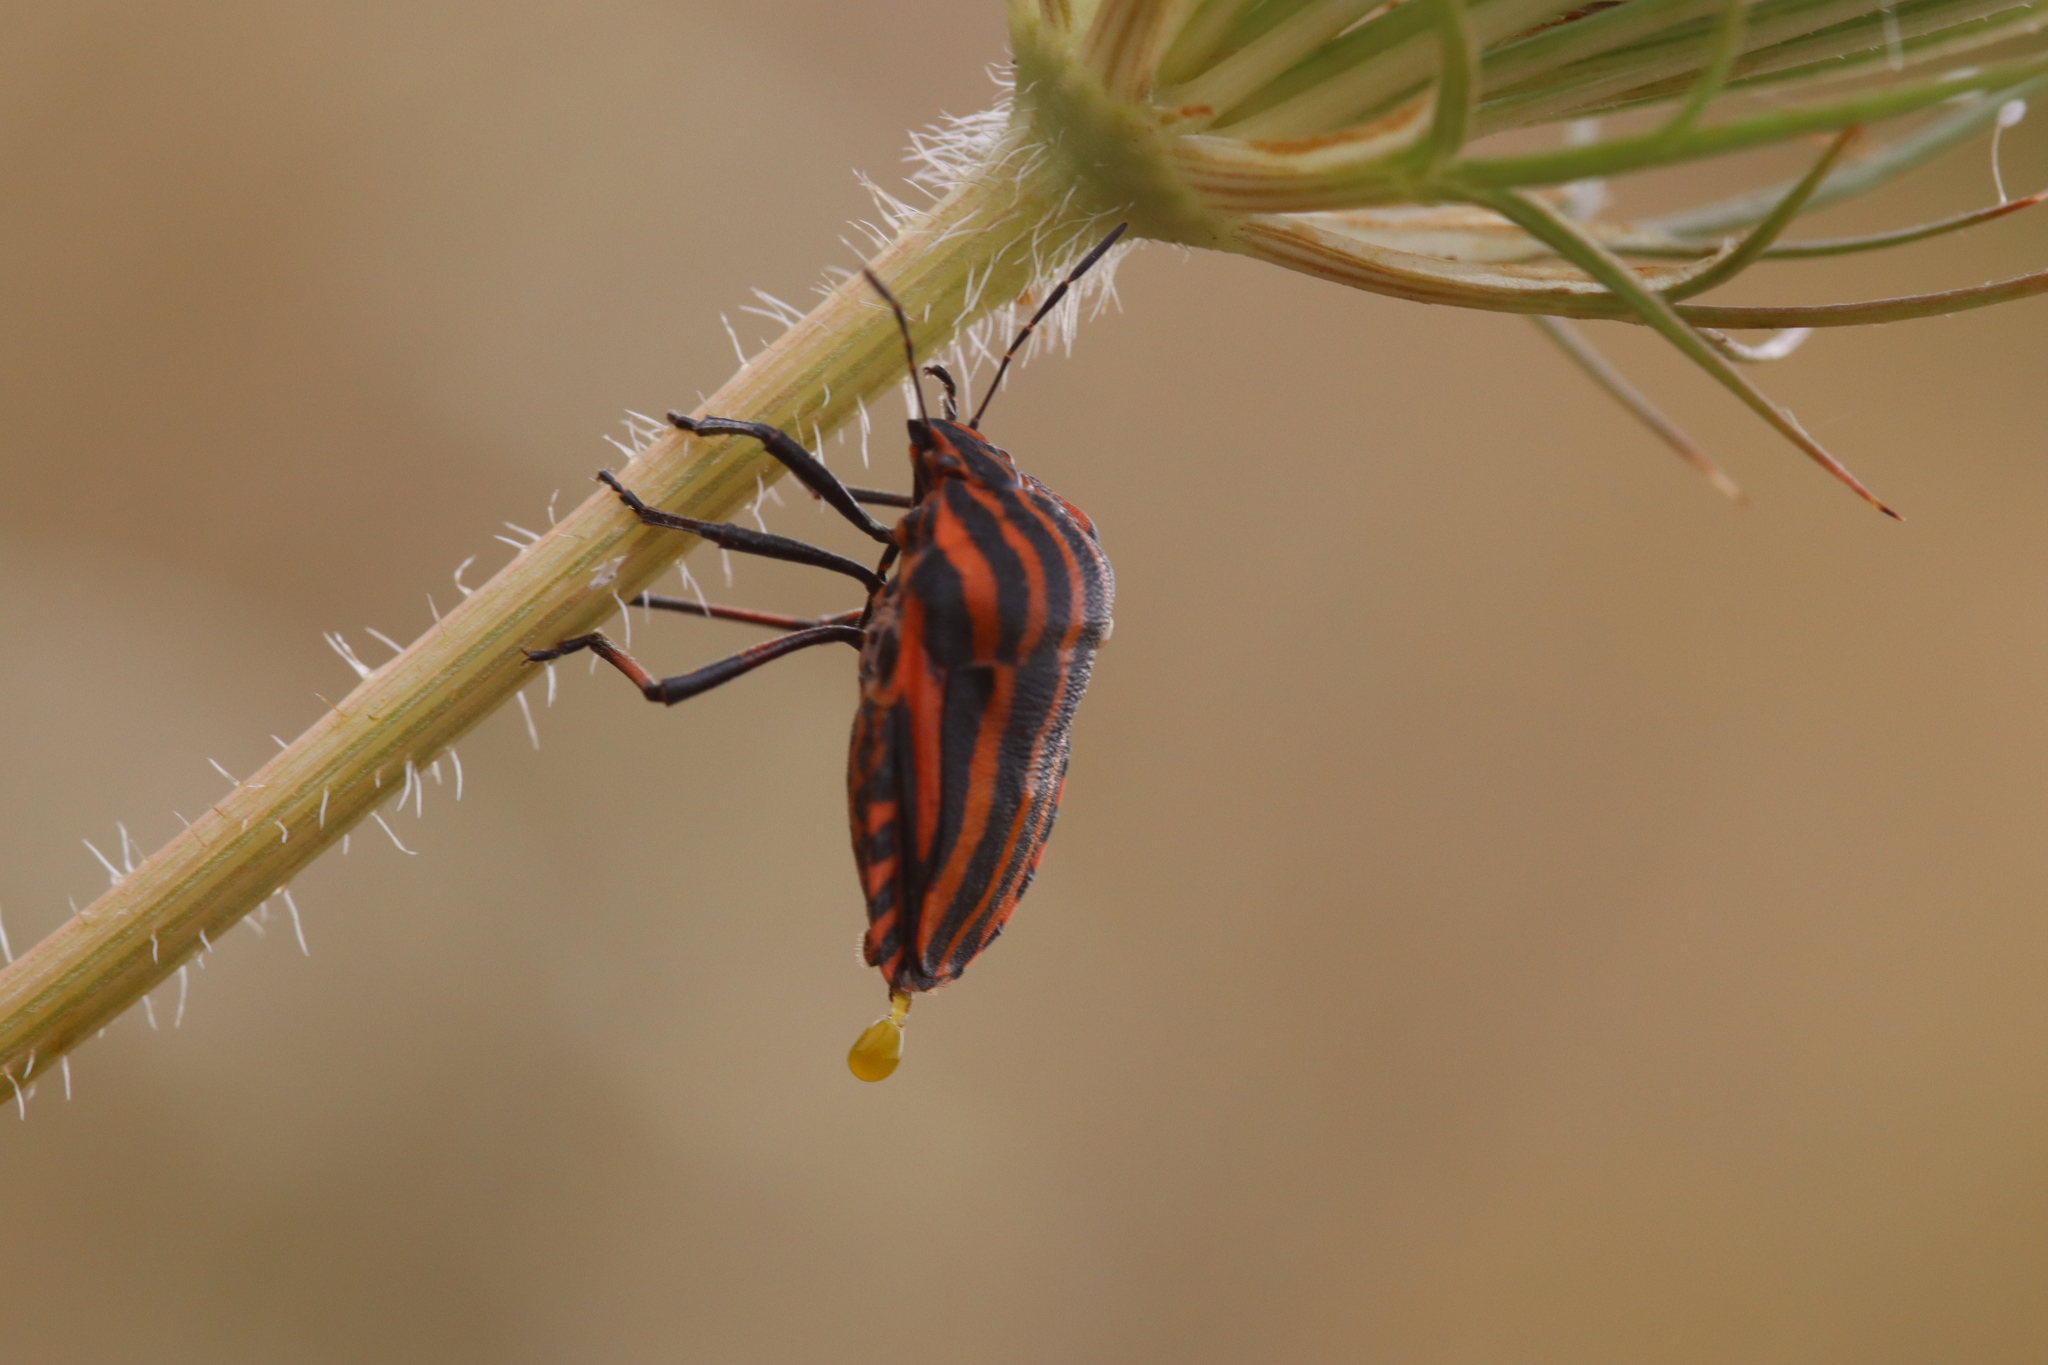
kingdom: Animalia
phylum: Arthropoda
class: Insecta
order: Hemiptera
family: Pentatomidae
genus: Graphosoma
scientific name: Graphosoma italicum
